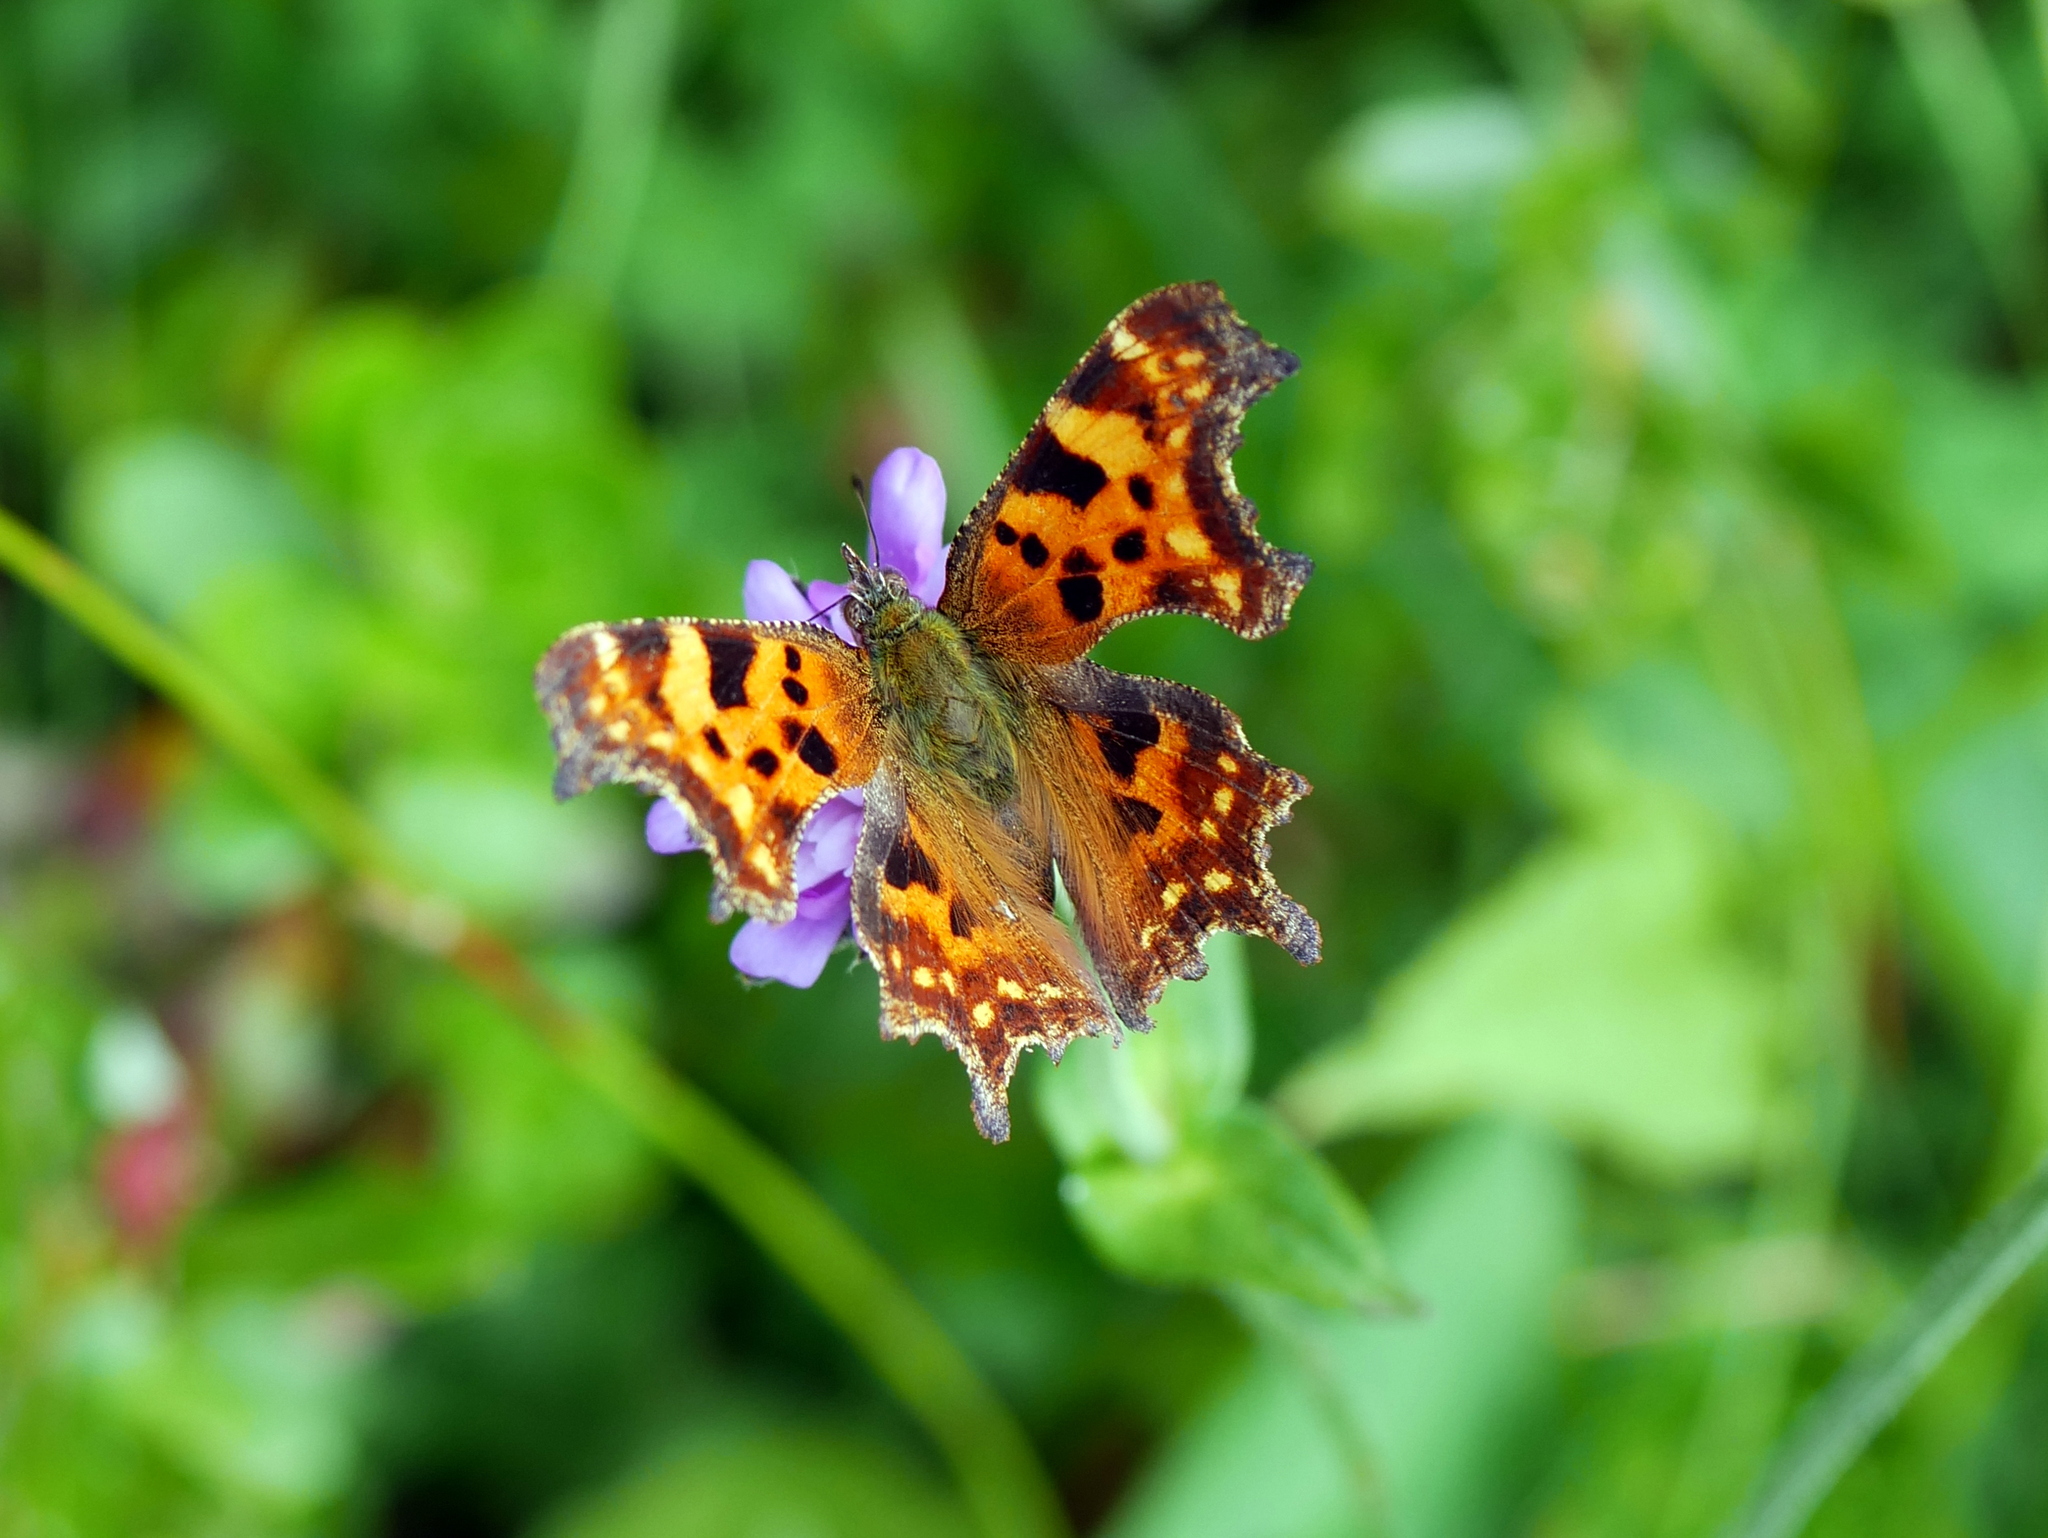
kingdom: Animalia
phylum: Arthropoda
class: Insecta
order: Lepidoptera
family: Nymphalidae
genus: Polygonia
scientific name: Polygonia c-album
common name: Comma
